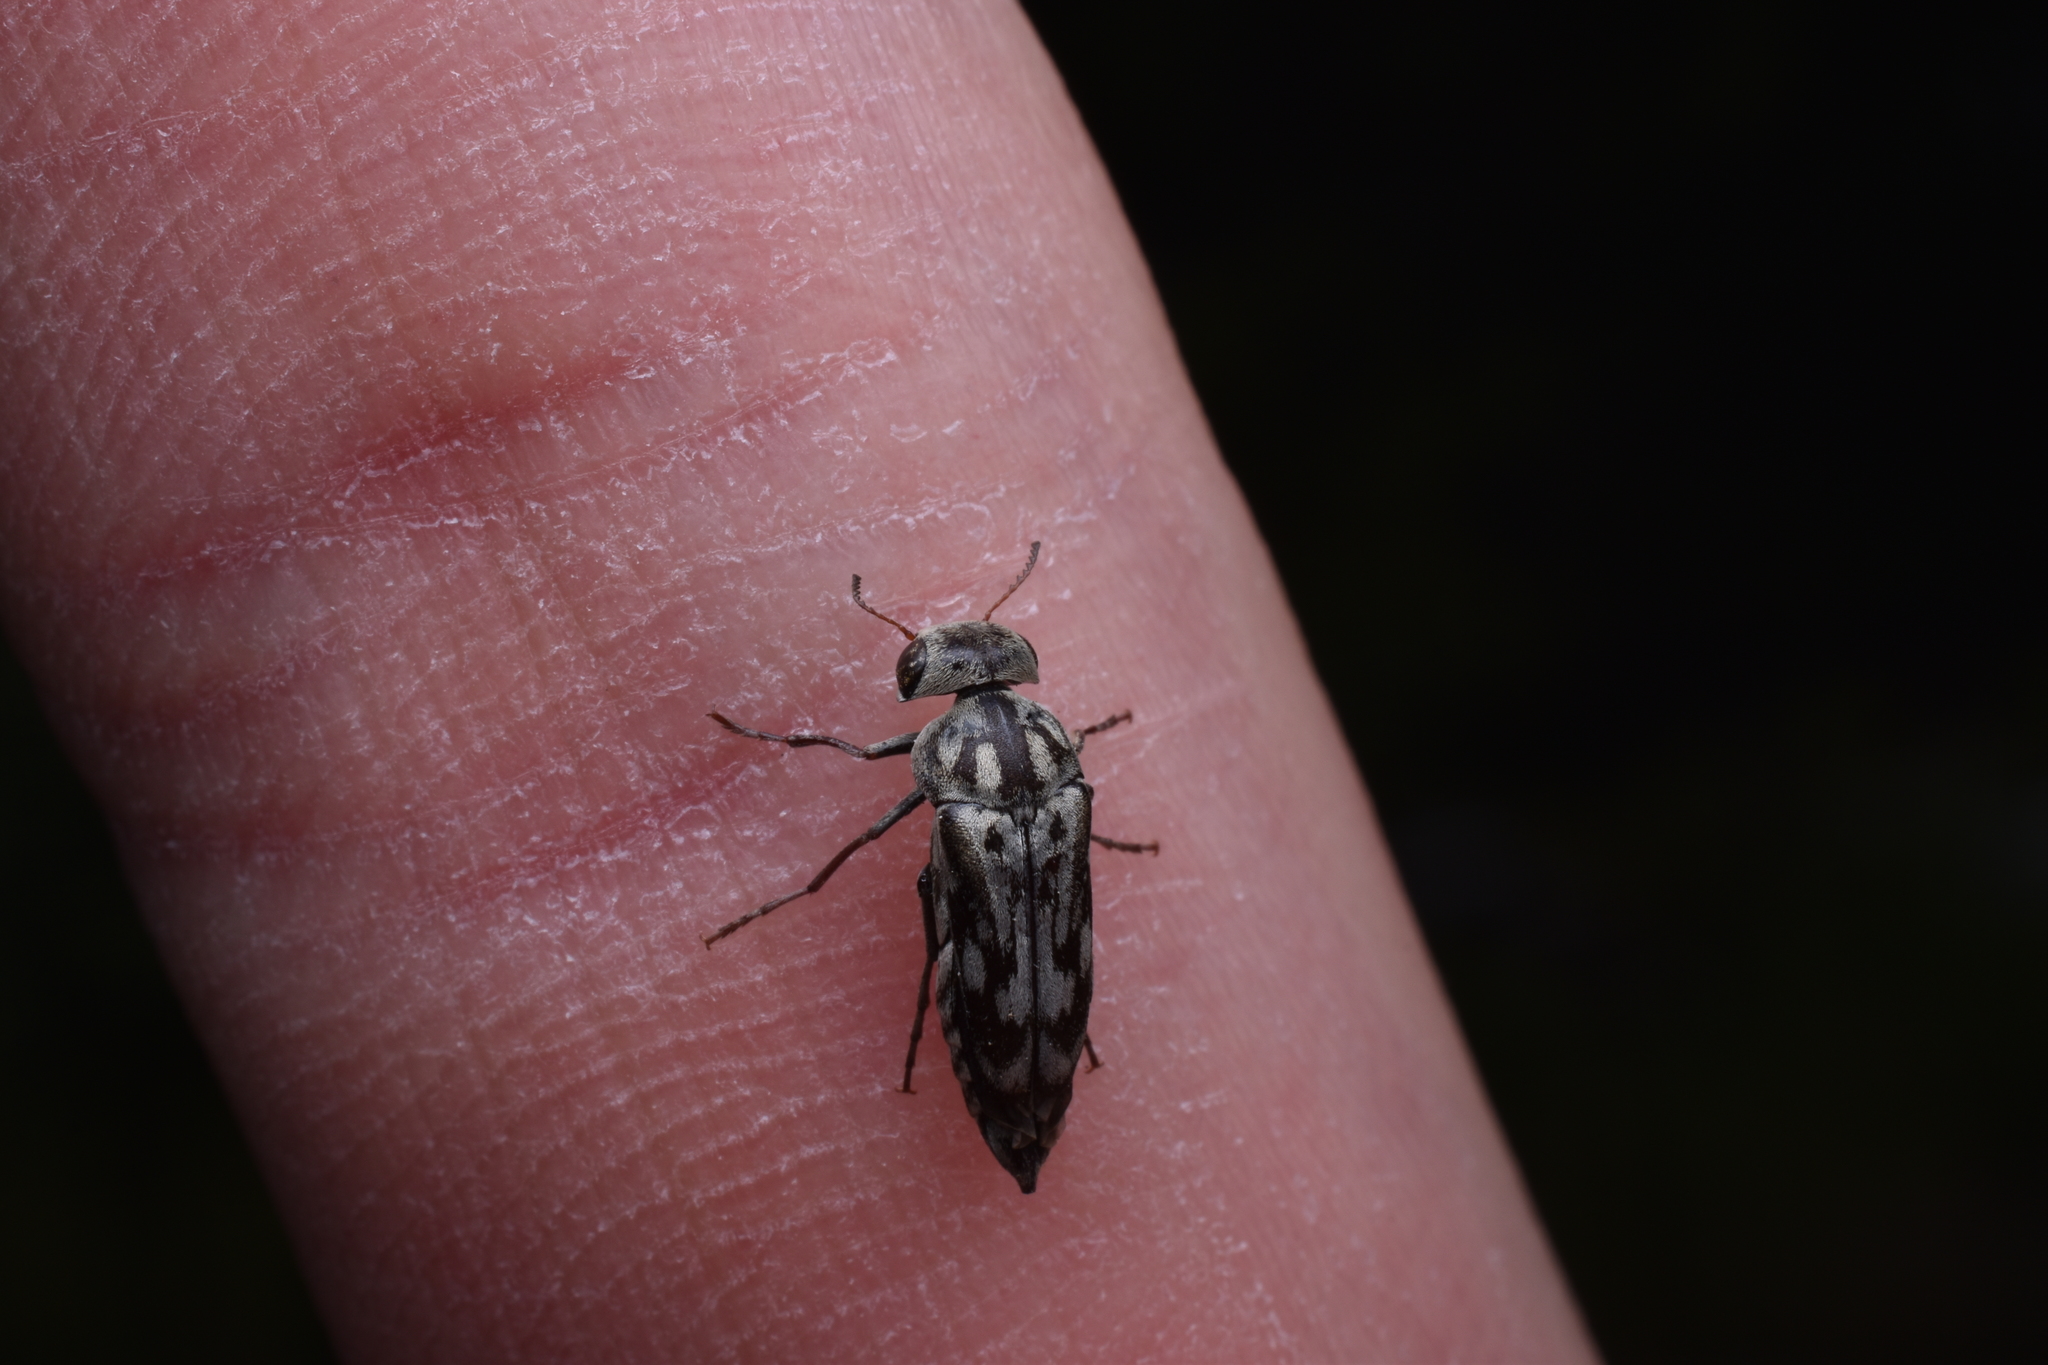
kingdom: Animalia
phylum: Arthropoda
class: Insecta
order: Coleoptera
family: Mordellidae
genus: Yakuhananomia
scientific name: Yakuhananomia bidentata
